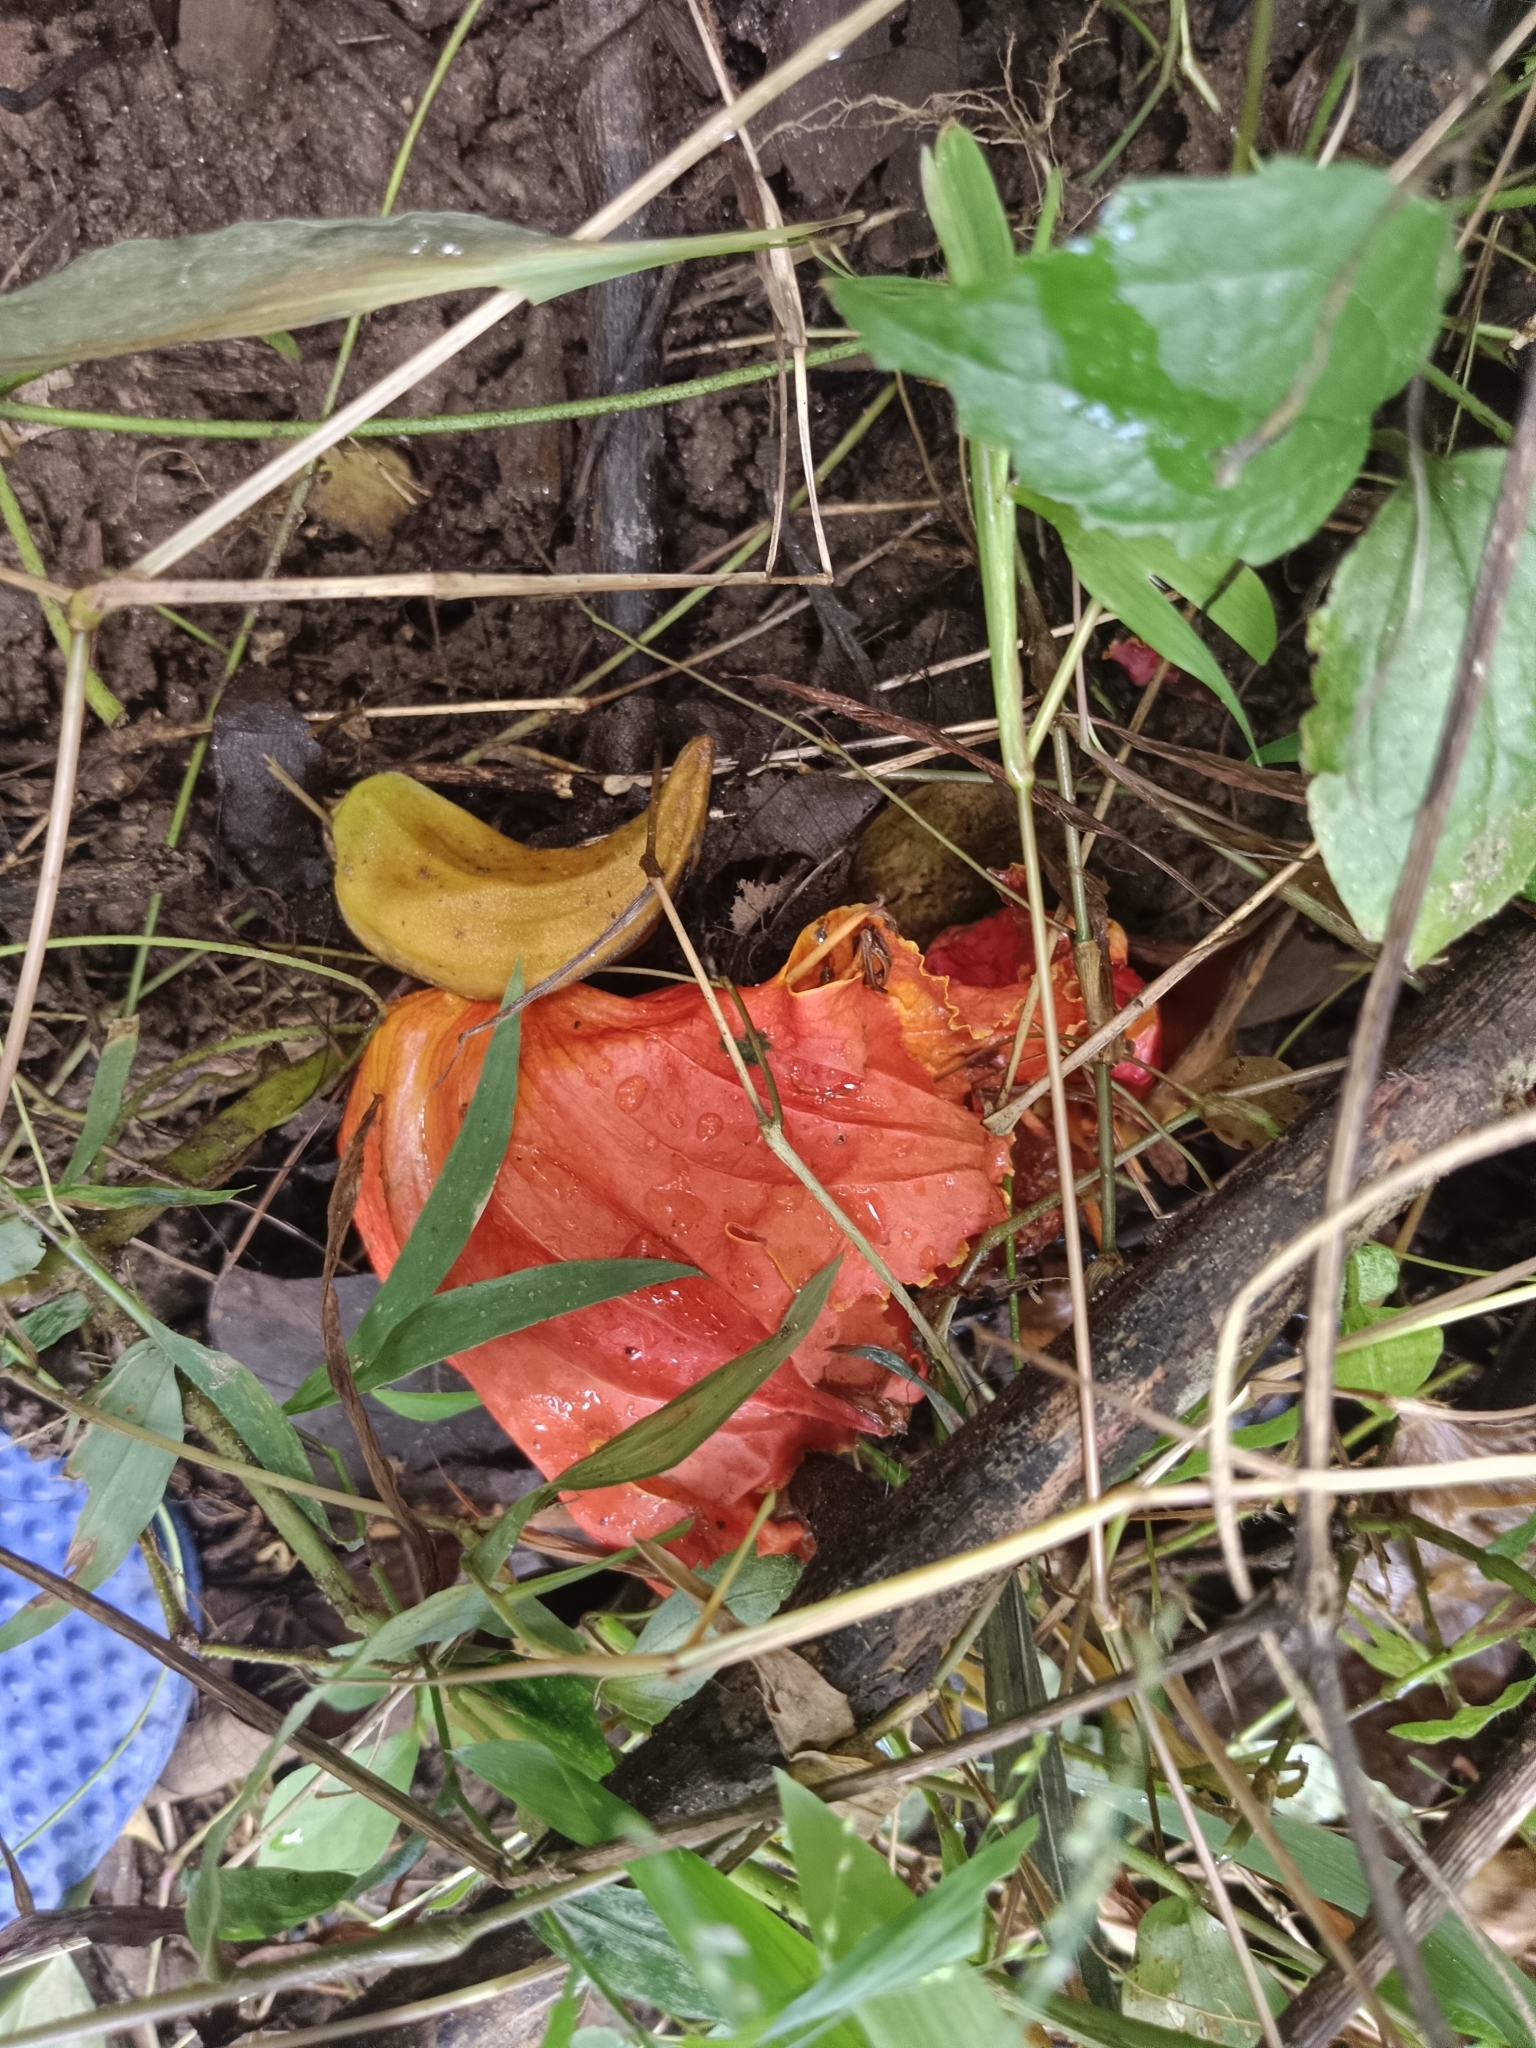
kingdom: Plantae
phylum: Tracheophyta
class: Magnoliopsida
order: Lamiales
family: Bignoniaceae
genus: Spathodea
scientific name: Spathodea campanulata
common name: African tuliptree
